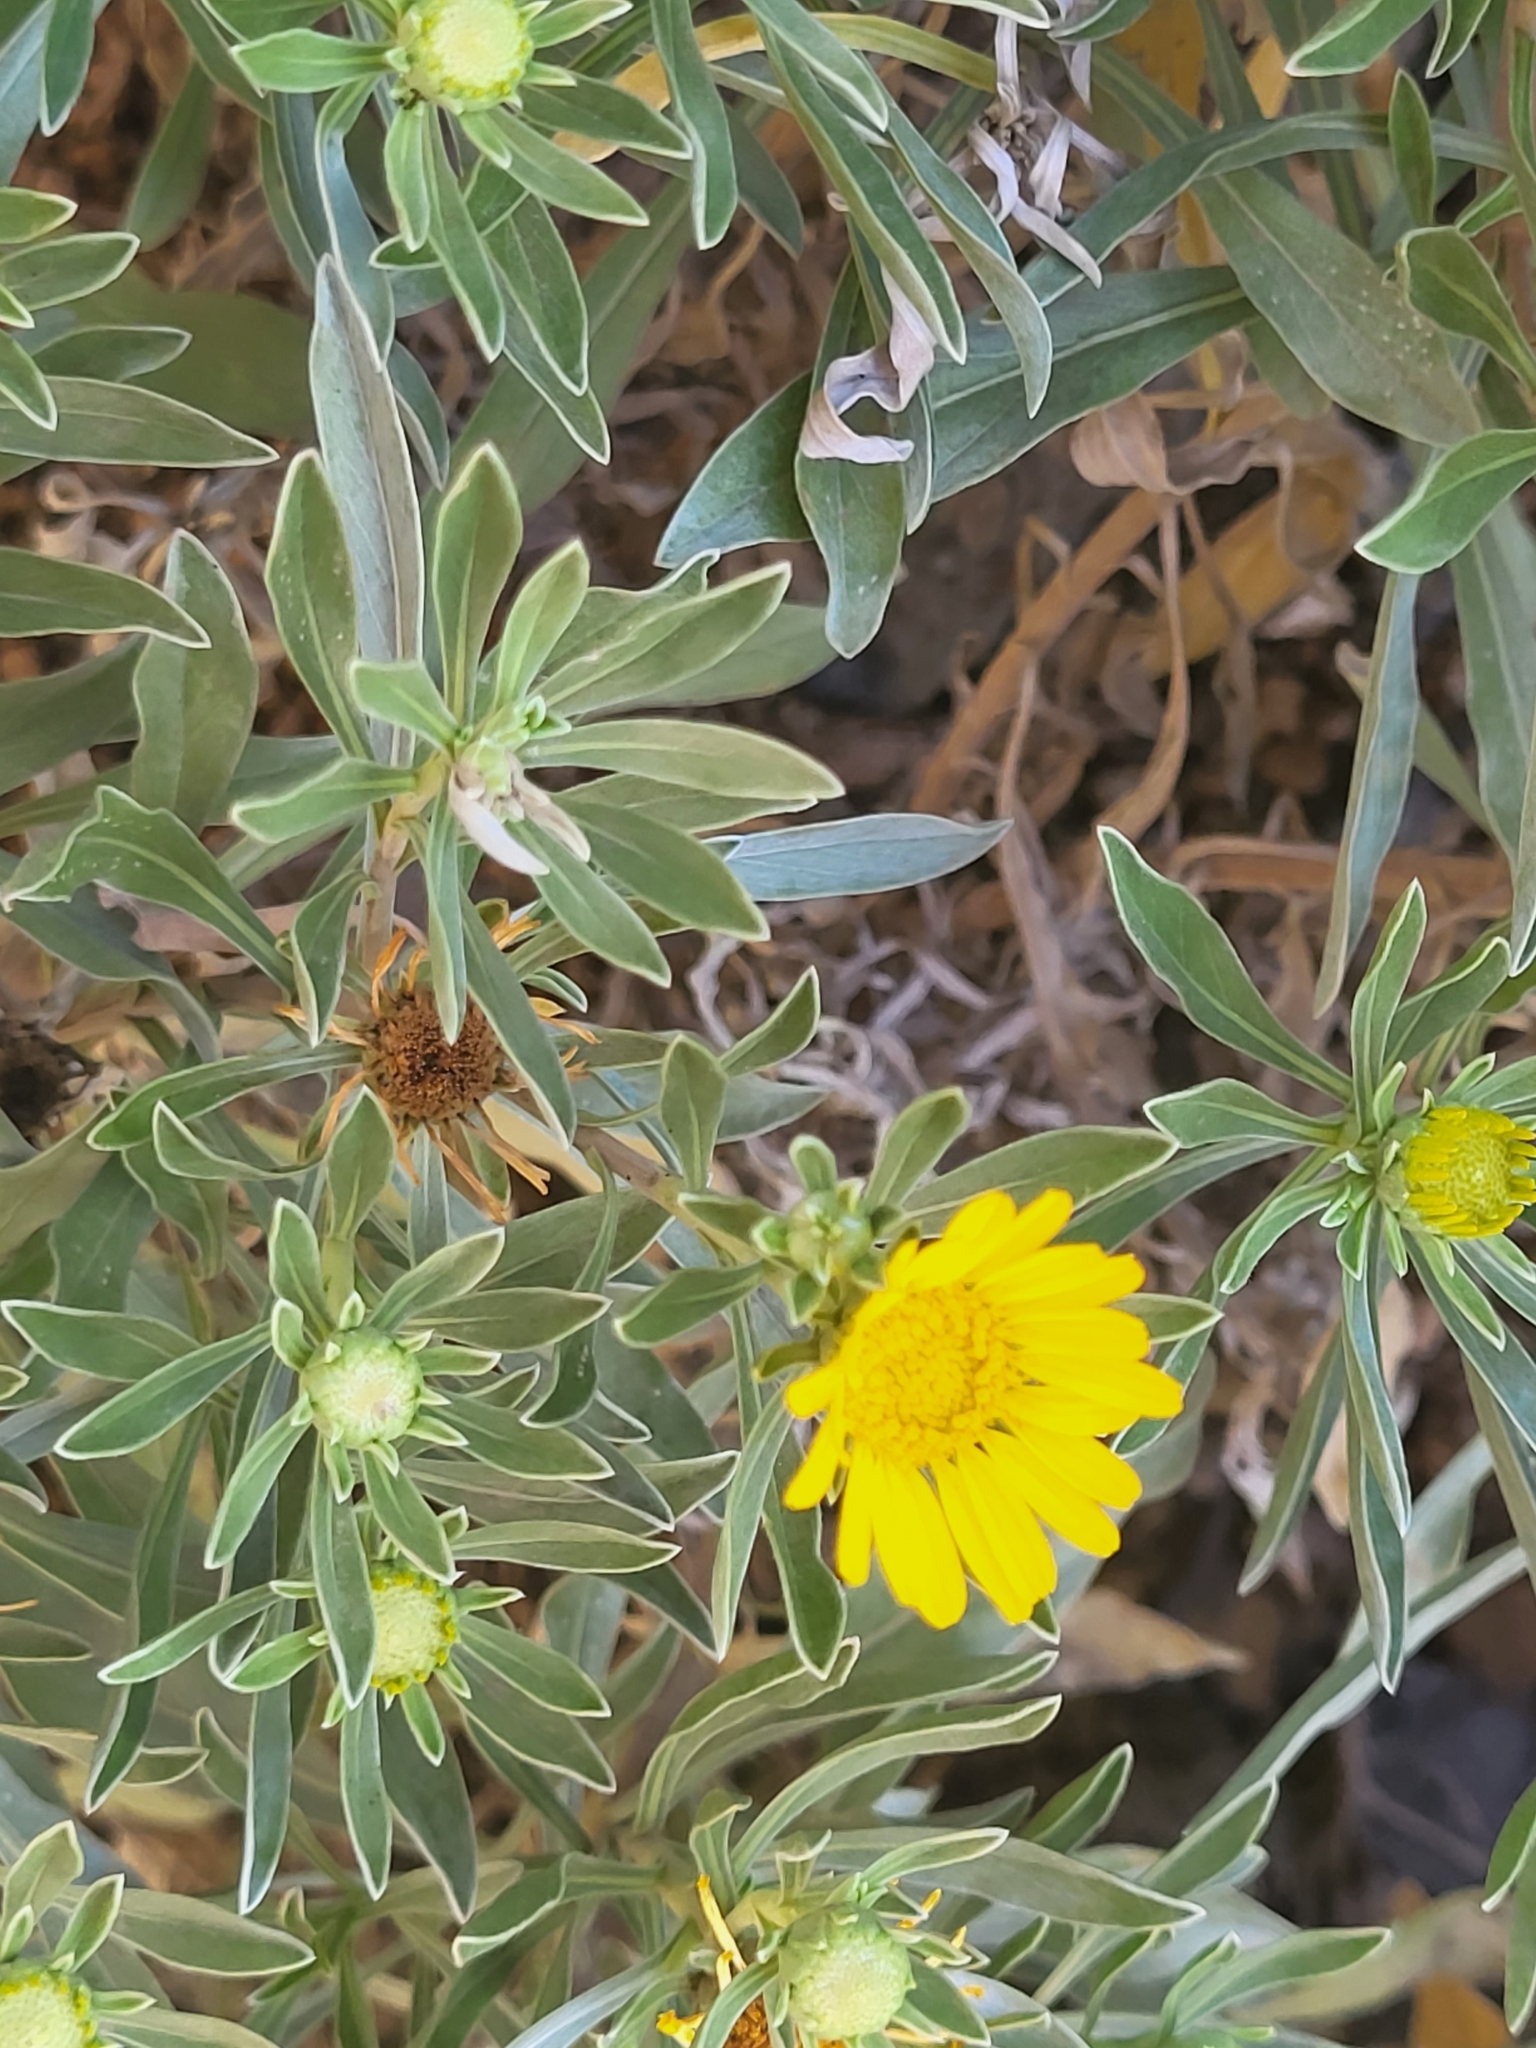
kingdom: Plantae
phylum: Tracheophyta
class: Magnoliopsida
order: Asterales
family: Asteraceae
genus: Asteriscus
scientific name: Asteriscus daltonii
